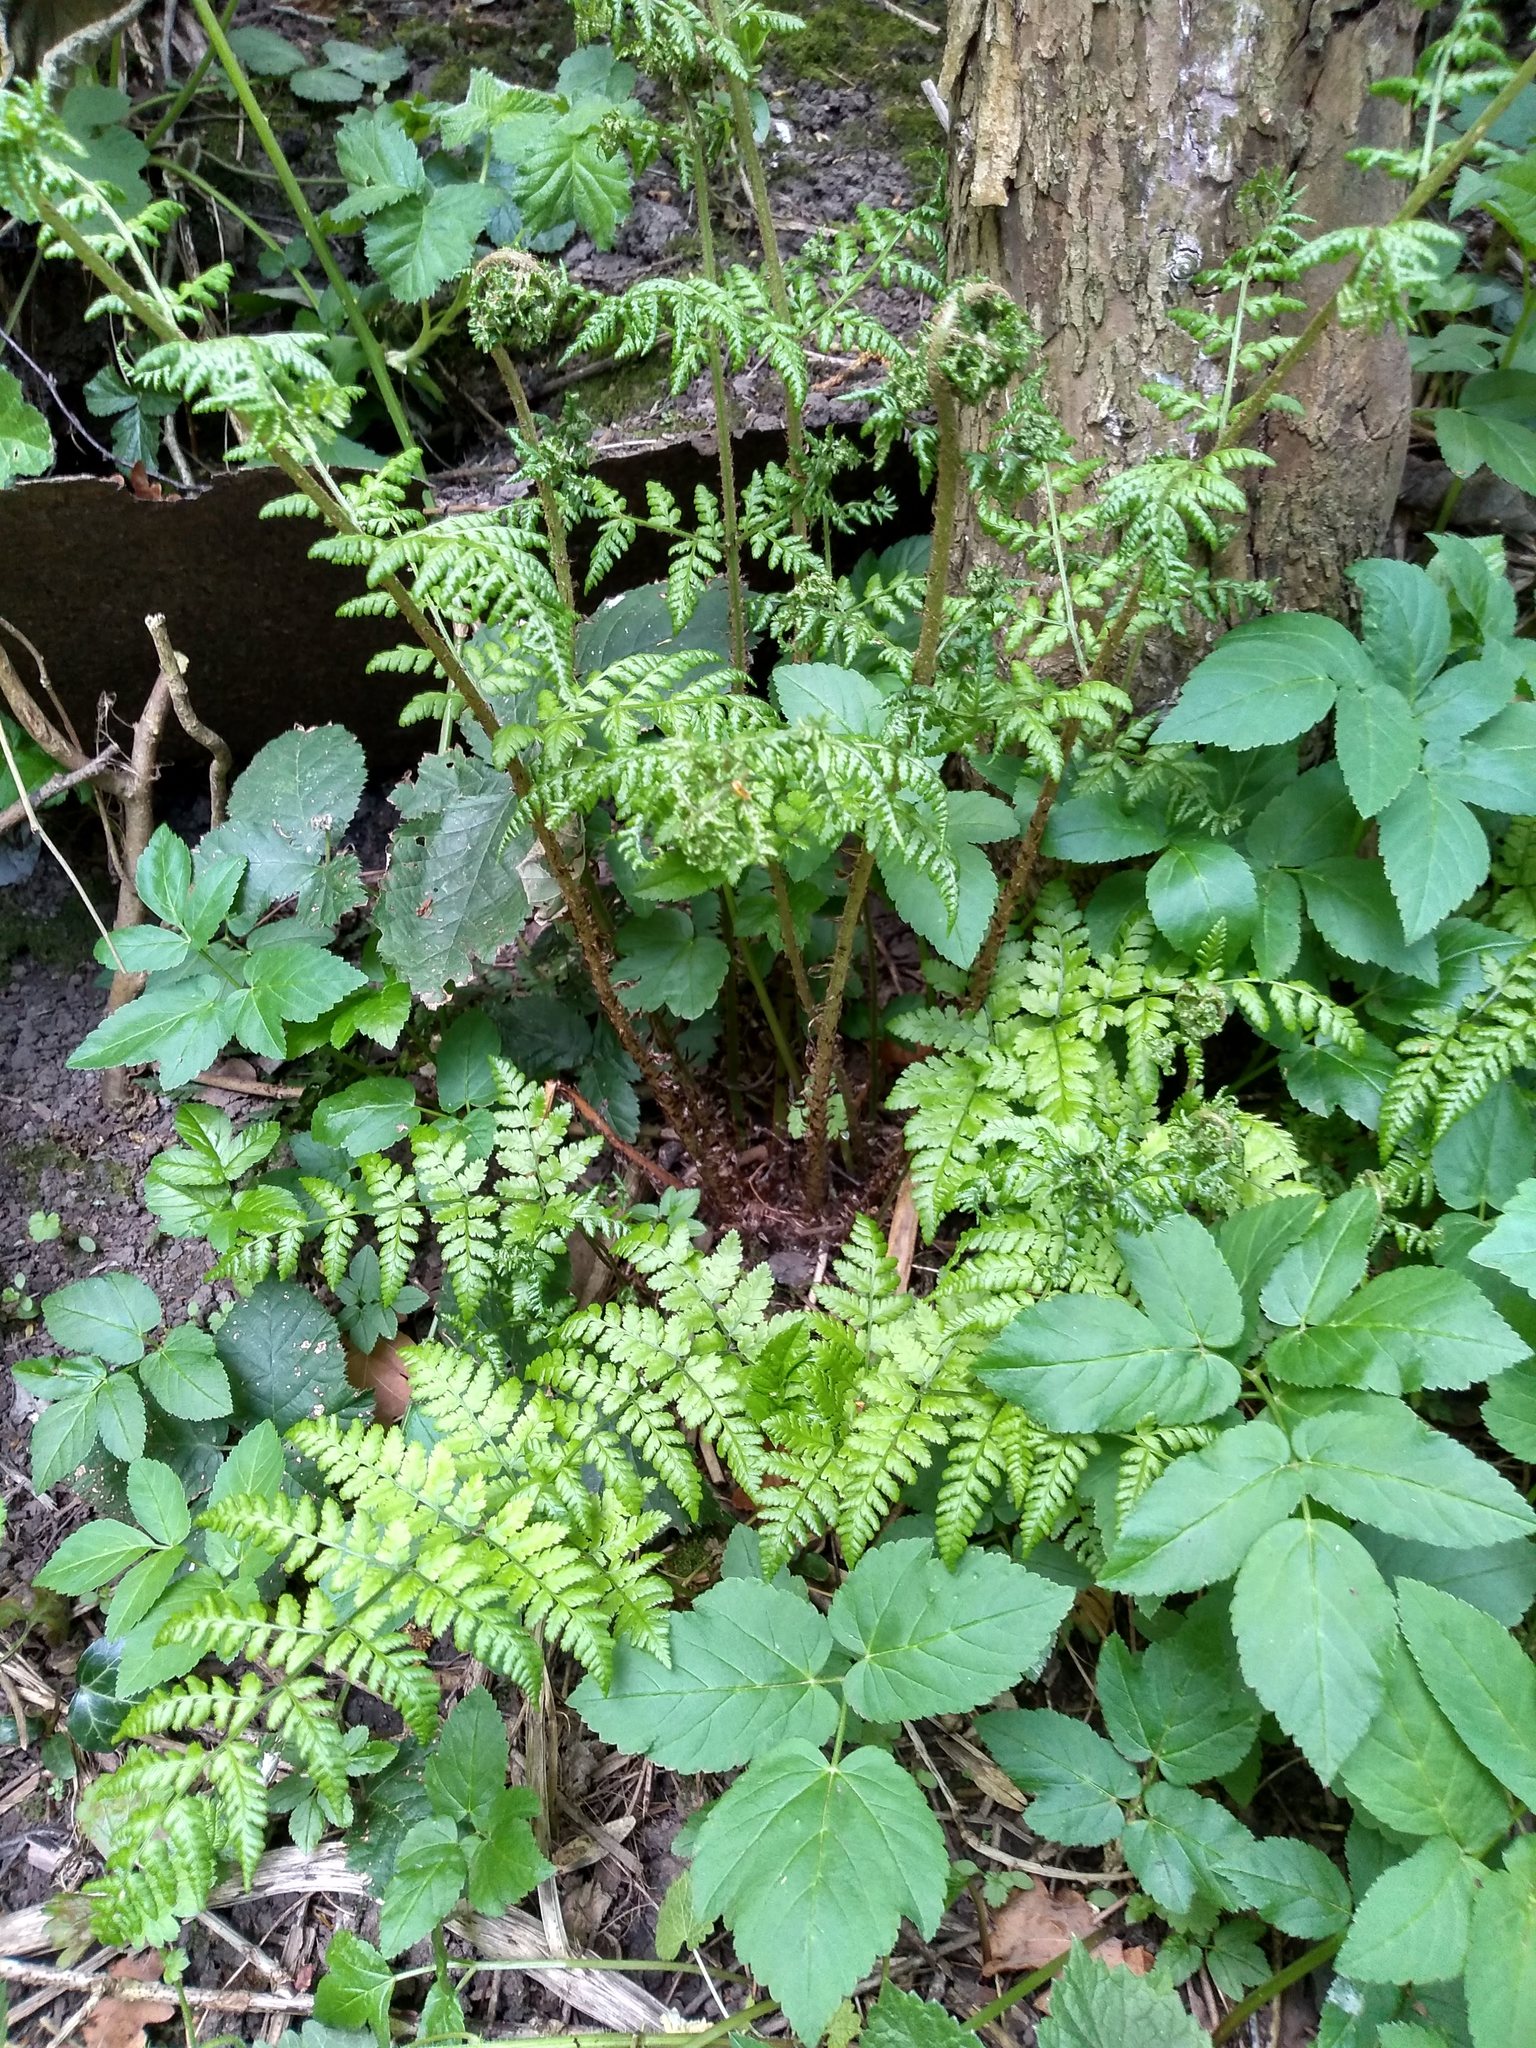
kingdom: Plantae
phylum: Tracheophyta
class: Polypodiopsida
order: Polypodiales
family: Dryopteridaceae
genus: Dryopteris
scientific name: Dryopteris dilatata
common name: Broad buckler-fern
